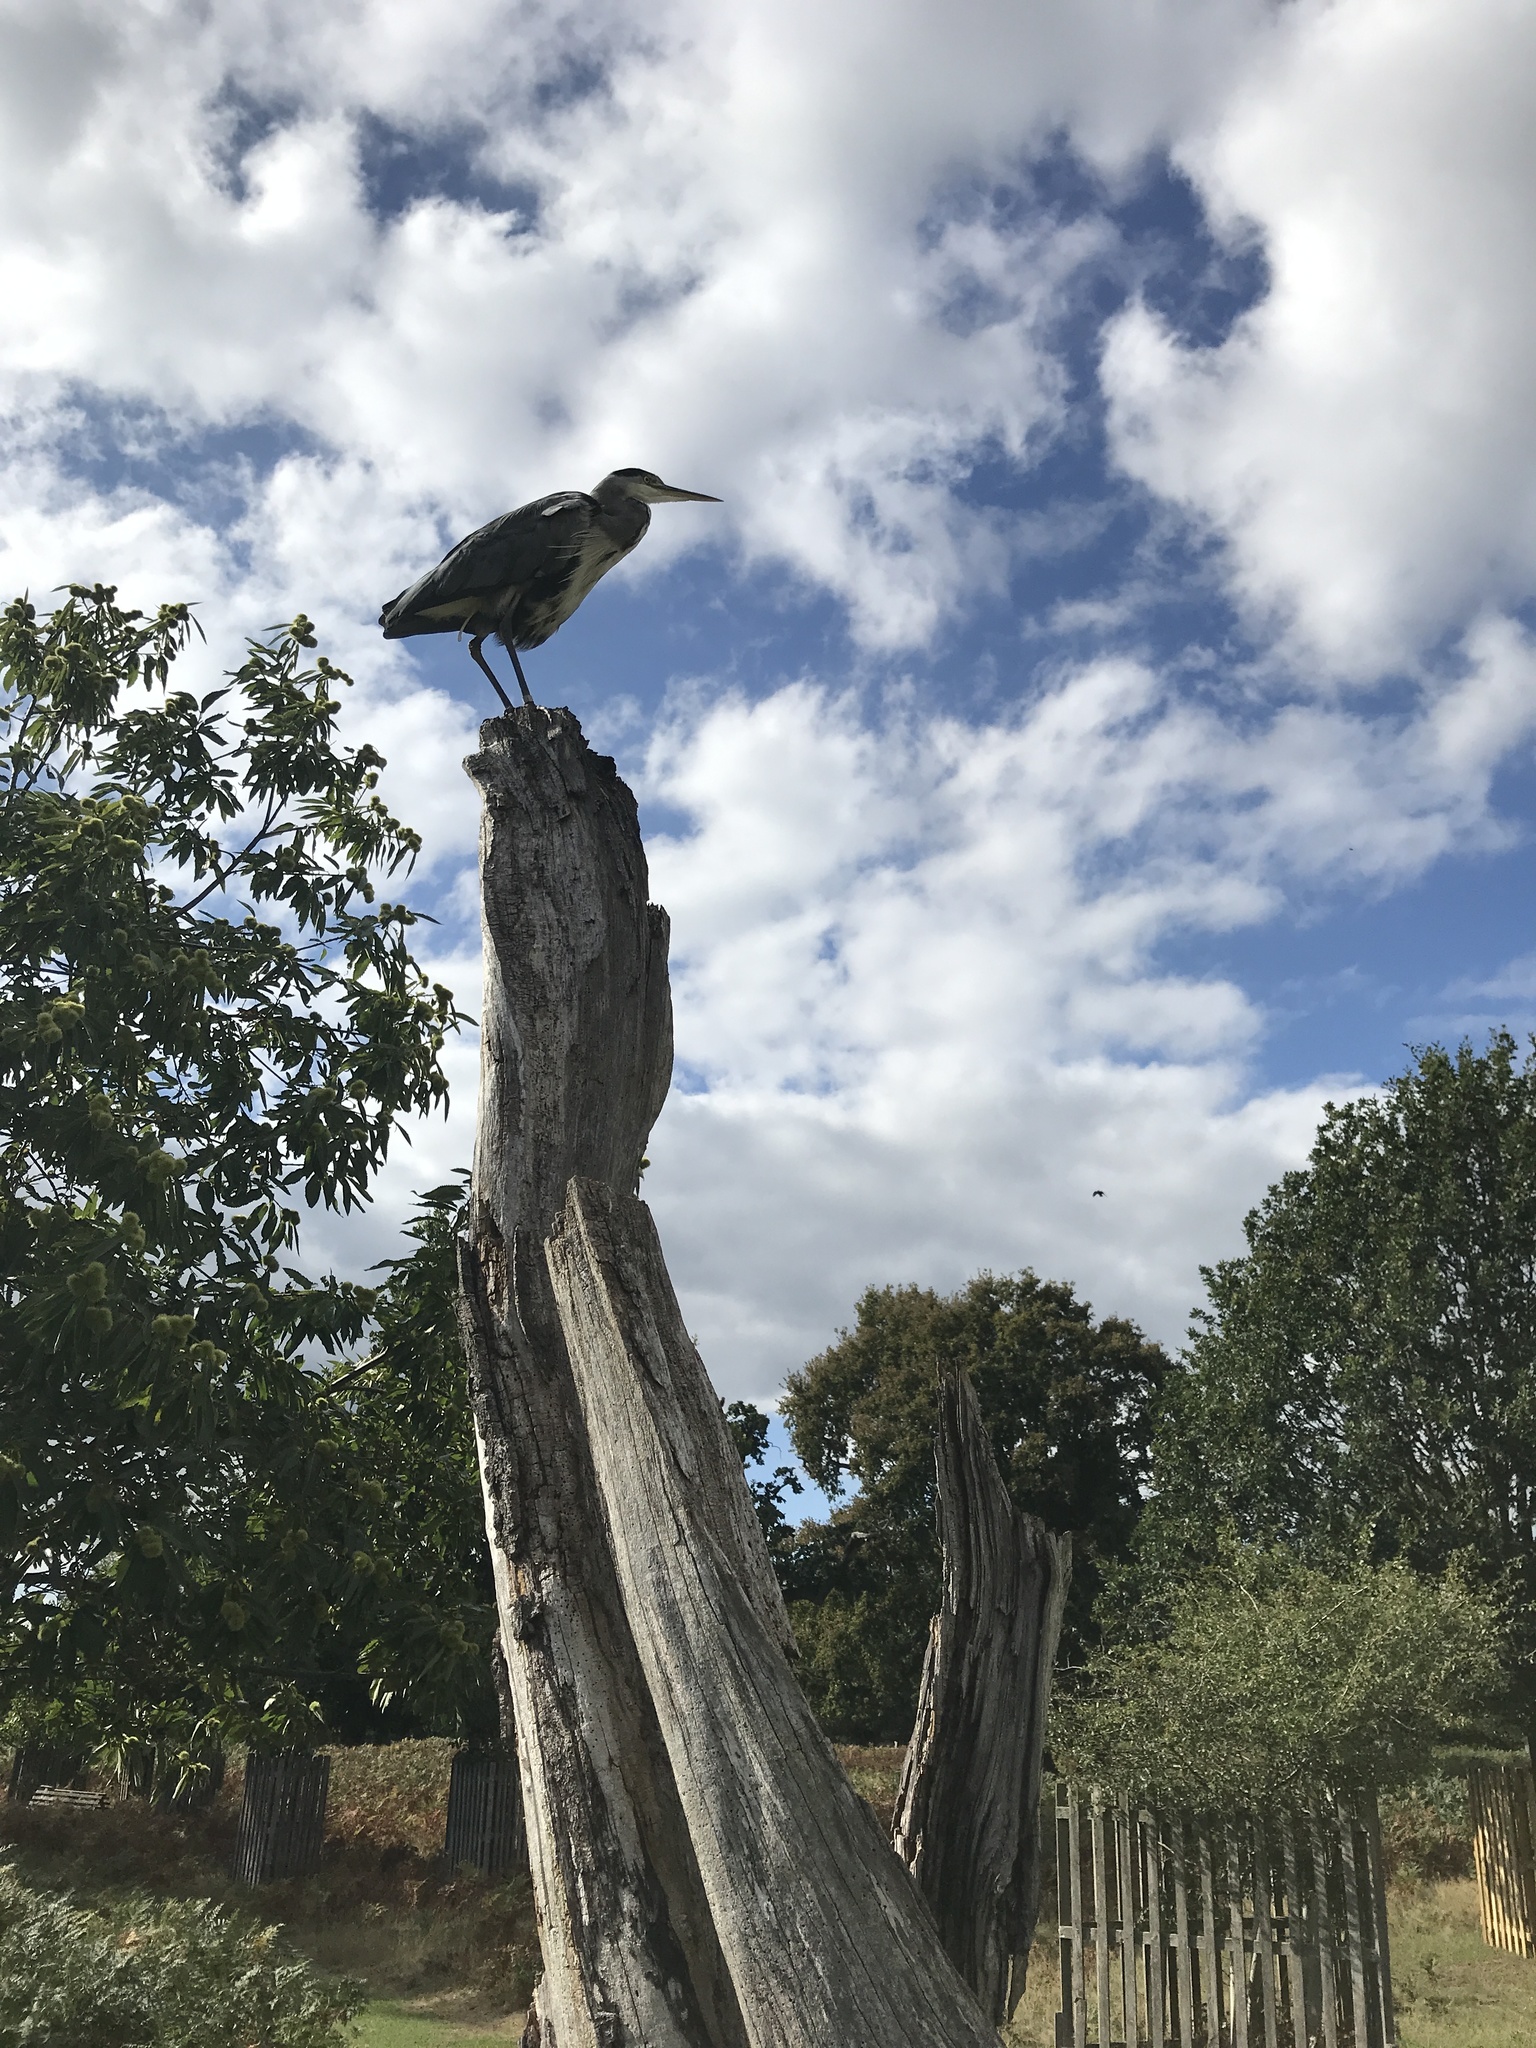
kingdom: Animalia
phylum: Chordata
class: Aves
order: Pelecaniformes
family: Ardeidae
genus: Ardea
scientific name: Ardea cinerea
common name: Grey heron
